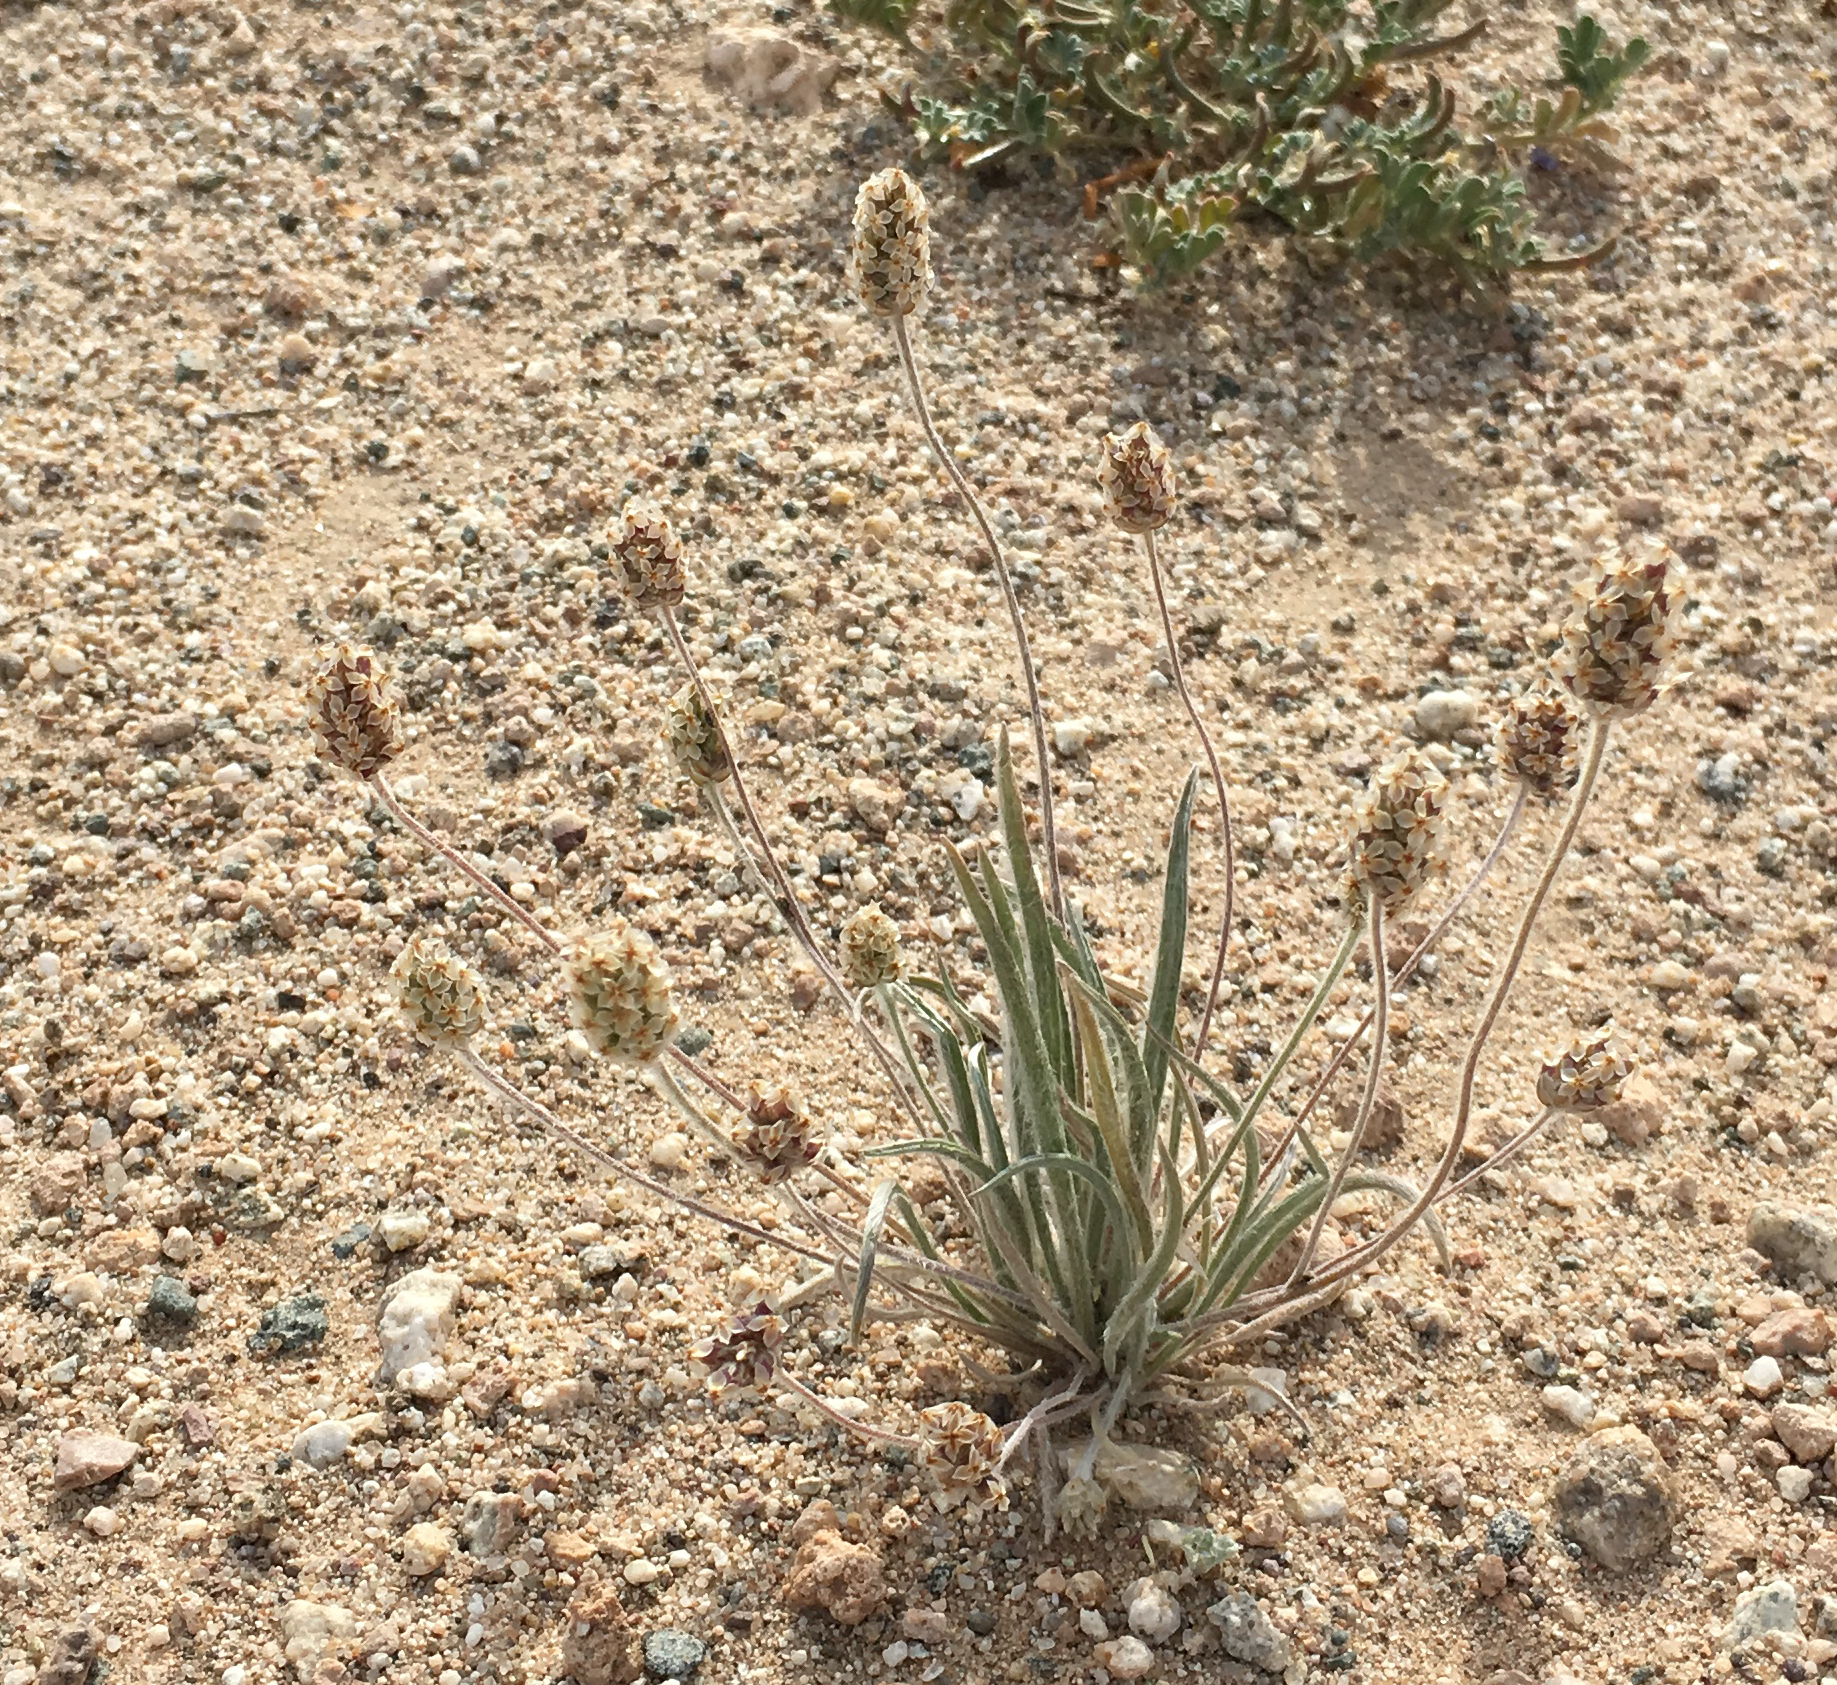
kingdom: Plantae
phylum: Tracheophyta
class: Magnoliopsida
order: Lamiales
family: Plantaginaceae
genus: Plantago
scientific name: Plantago ovata
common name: Blond plantain
